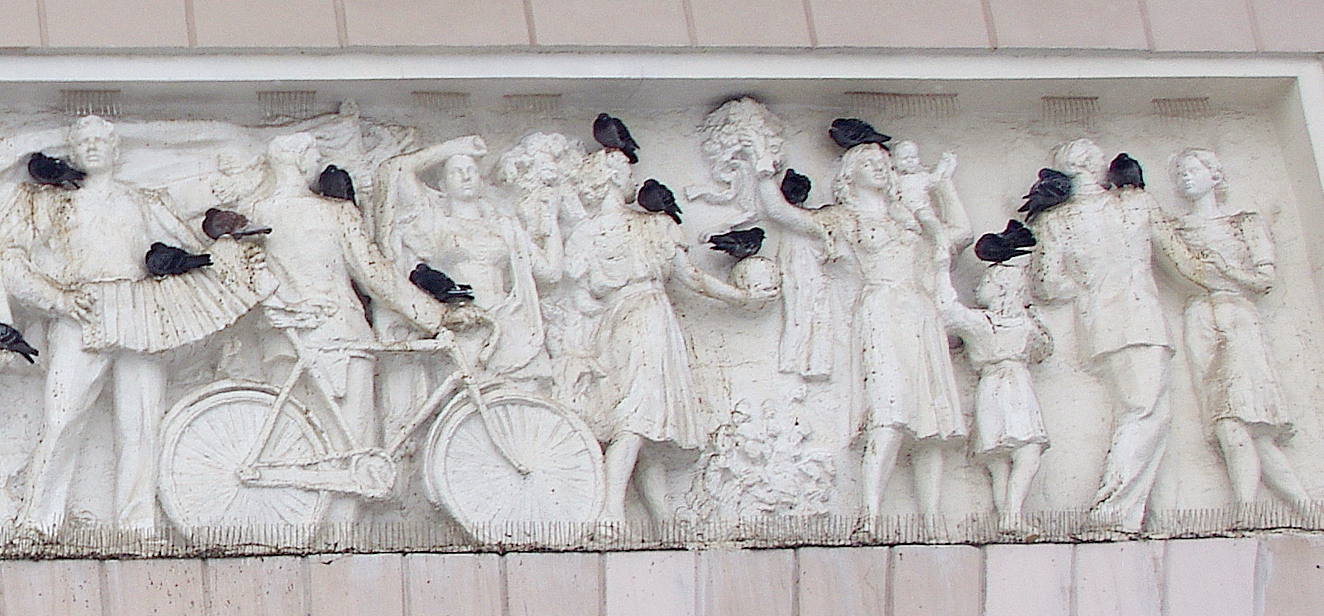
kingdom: Animalia
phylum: Chordata
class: Aves
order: Columbiformes
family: Columbidae
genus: Columba
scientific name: Columba livia
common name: Rock pigeon
